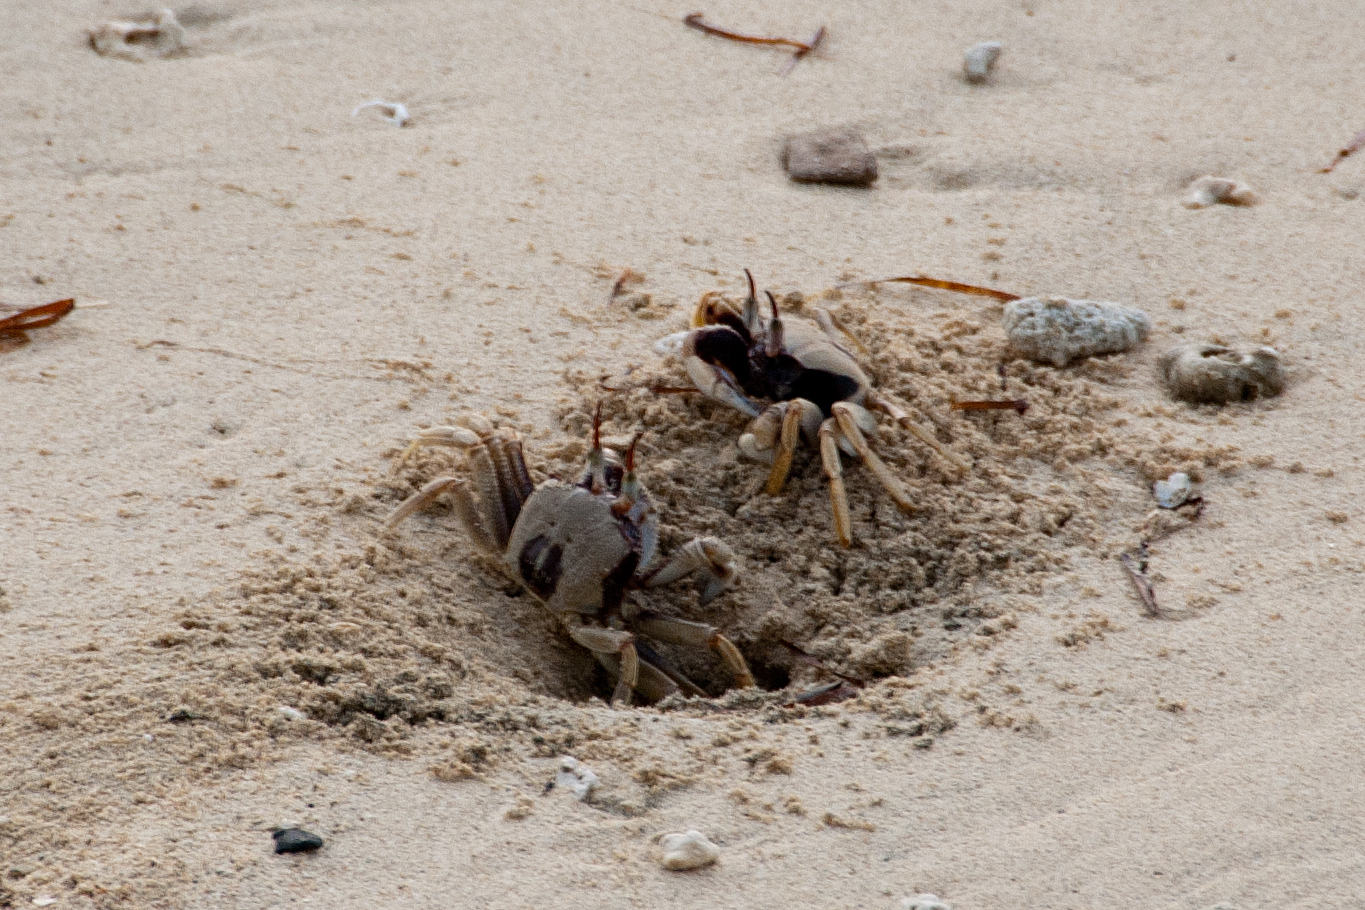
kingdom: Animalia
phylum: Arthropoda
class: Malacostraca
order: Decapoda
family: Ocypodidae
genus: Ocypode
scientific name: Ocypode ceratophthalmus
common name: Indo-pacific ghost crab
